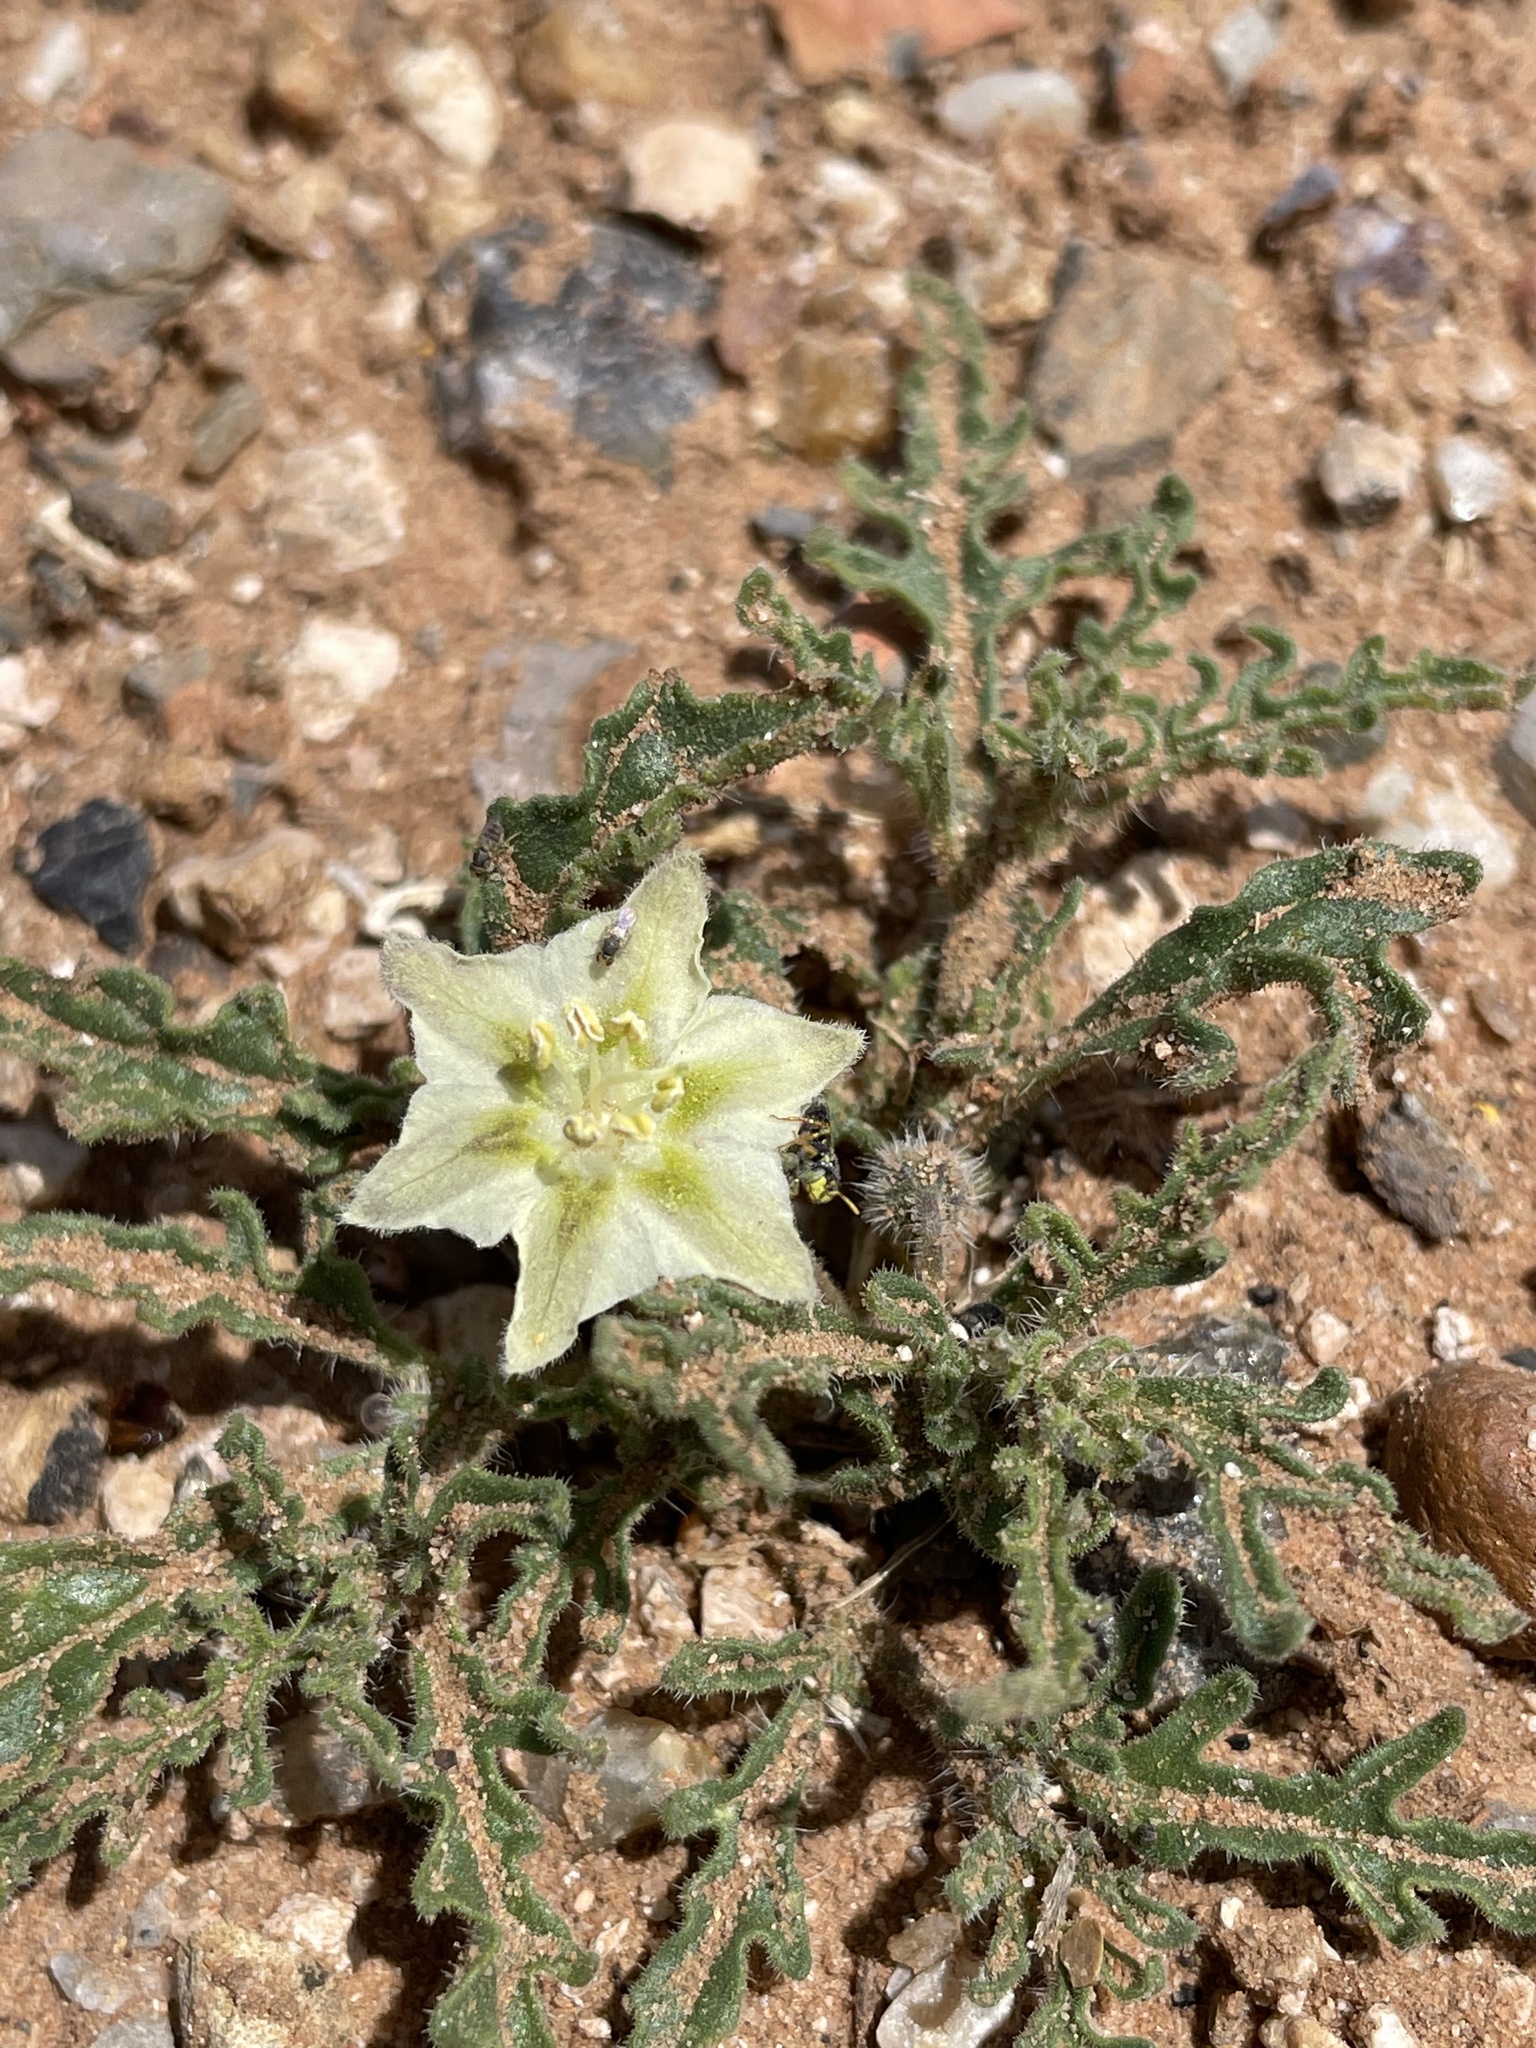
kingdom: Plantae
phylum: Tracheophyta
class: Magnoliopsida
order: Solanales
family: Solanaceae
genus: Chamaesaracha
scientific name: Chamaesaracha coniodes
